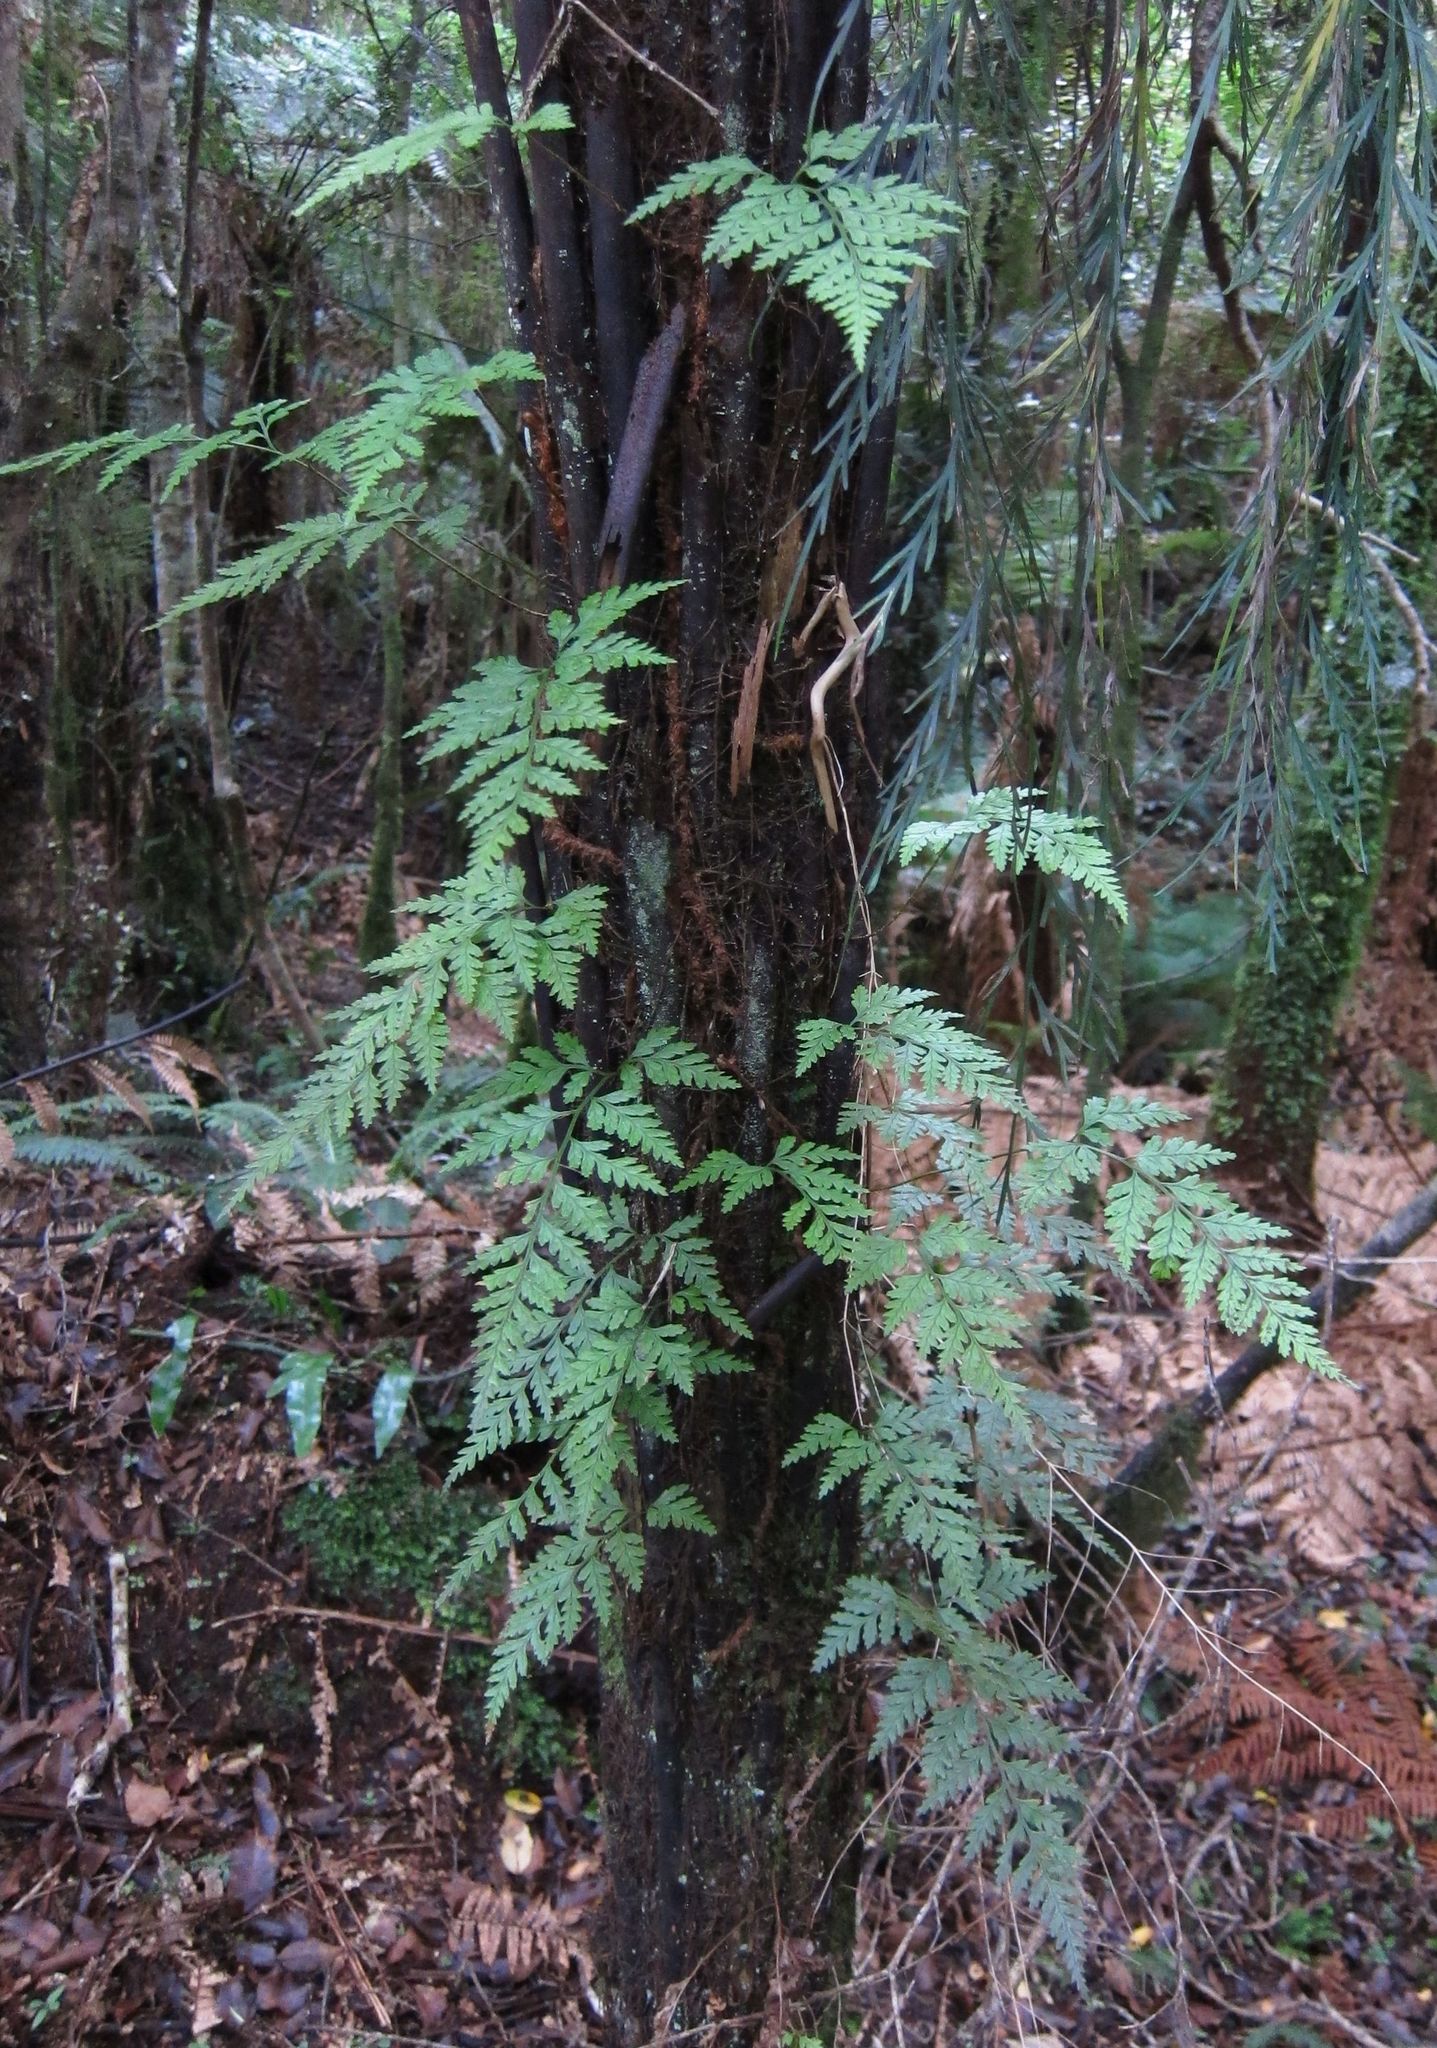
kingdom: Plantae
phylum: Tracheophyta
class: Polypodiopsida
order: Polypodiales
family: Dryopteridaceae
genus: Rumohra
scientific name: Rumohra adiantiformis
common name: Leather fern
